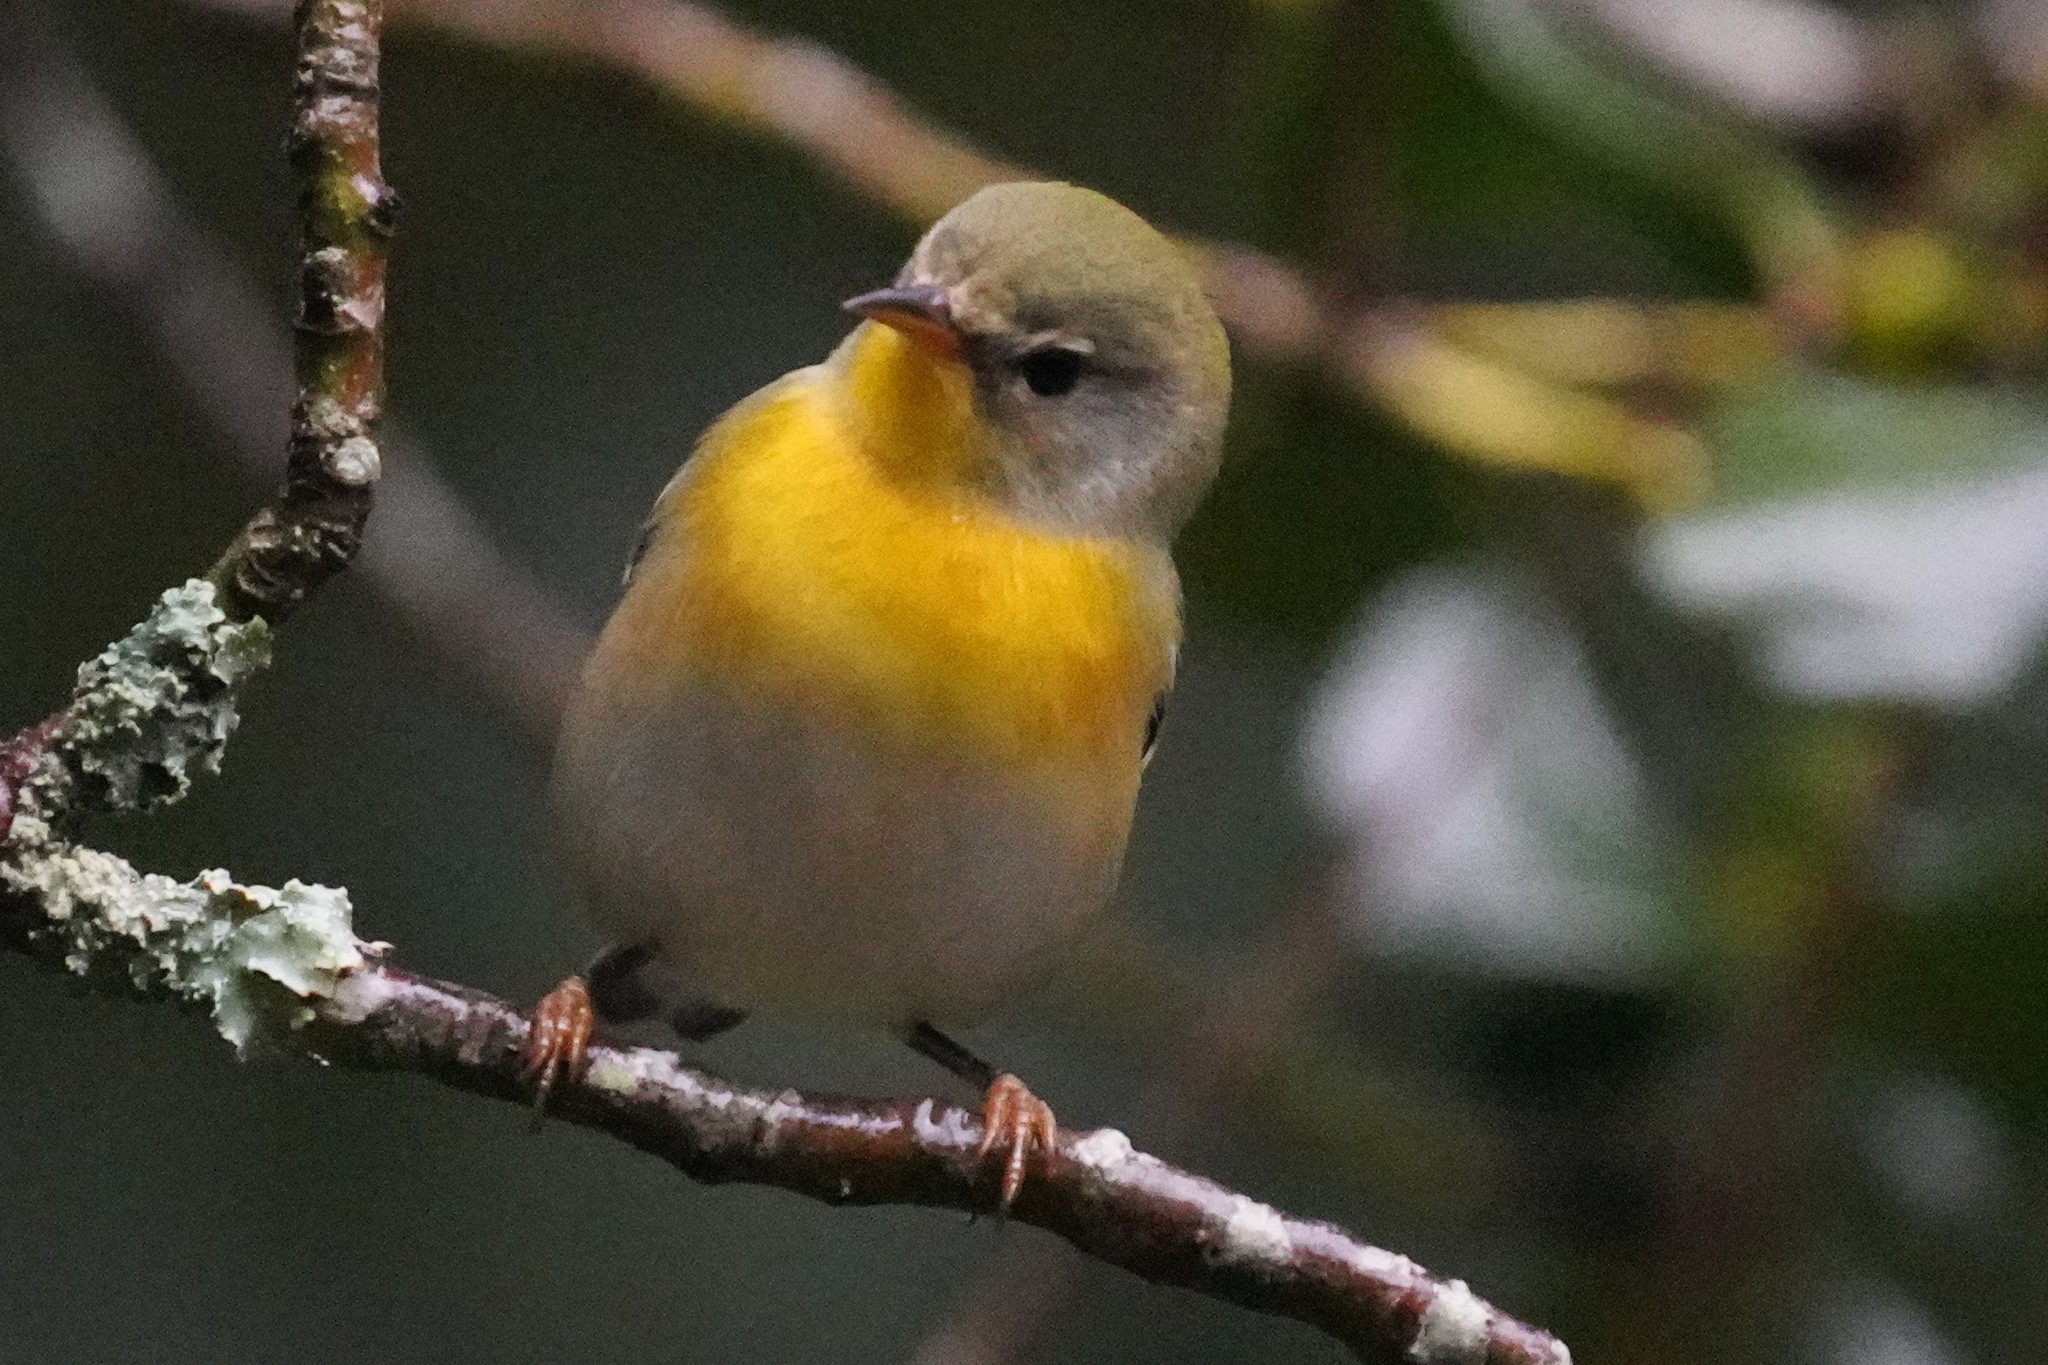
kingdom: Animalia
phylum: Chordata
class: Aves
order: Passeriformes
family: Parulidae
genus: Setophaga
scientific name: Setophaga americana
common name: Northern parula
